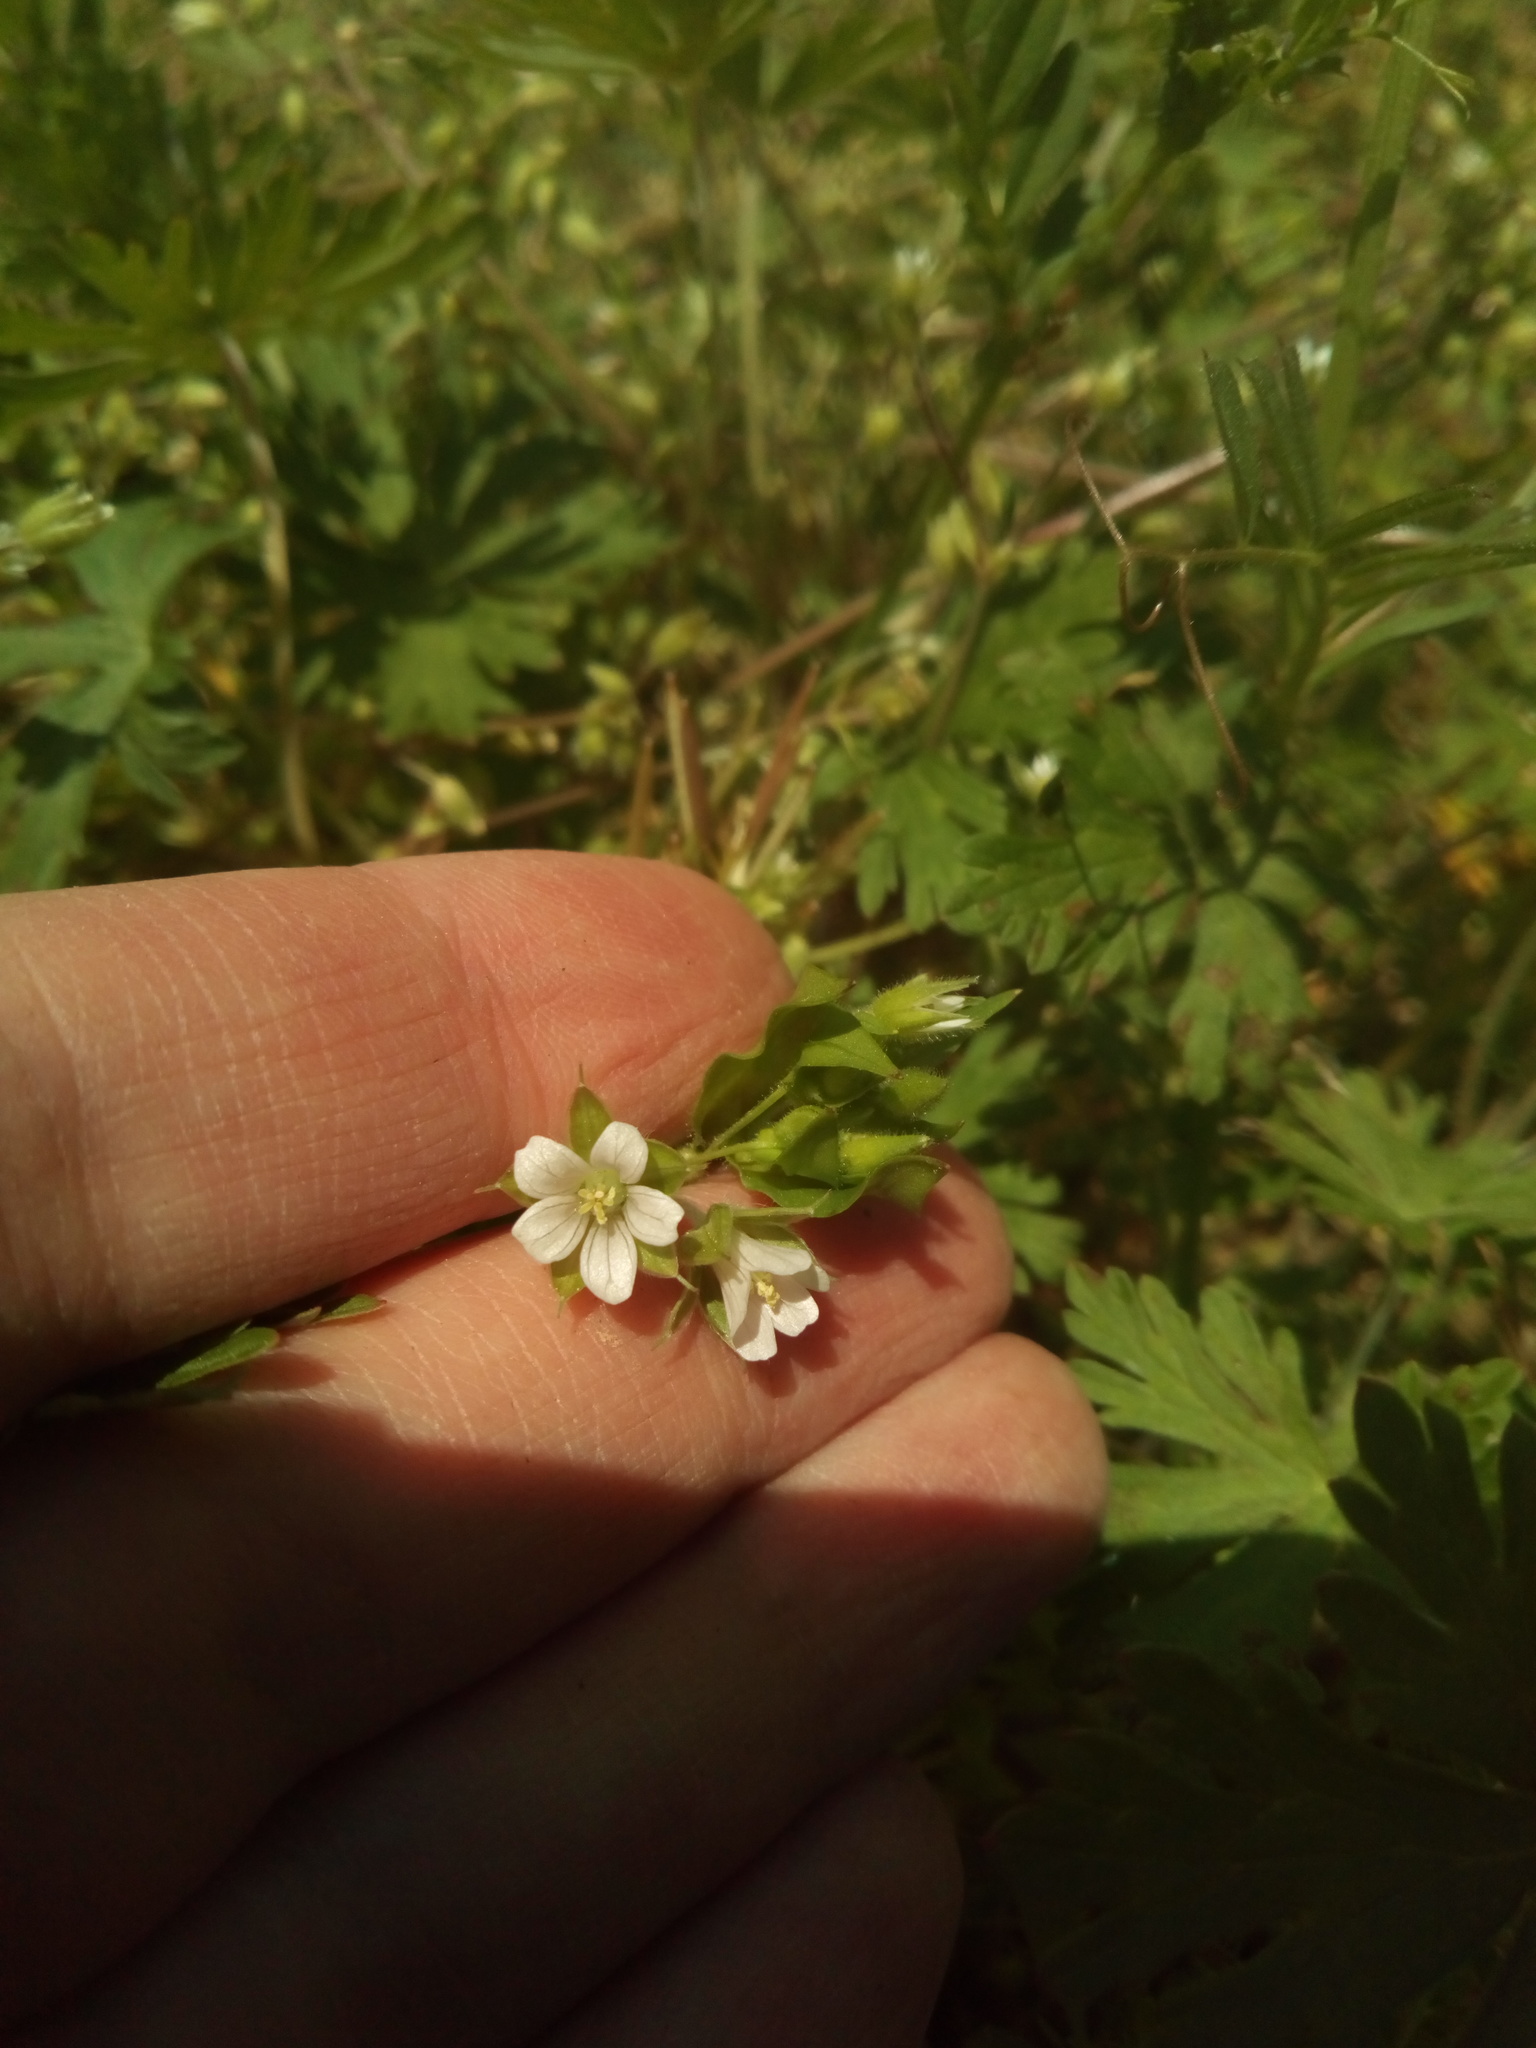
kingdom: Plantae
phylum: Tracheophyta
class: Magnoliopsida
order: Geraniales
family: Geraniaceae
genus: Geranium
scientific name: Geranium carolinianum
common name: Carolina crane's-bill
